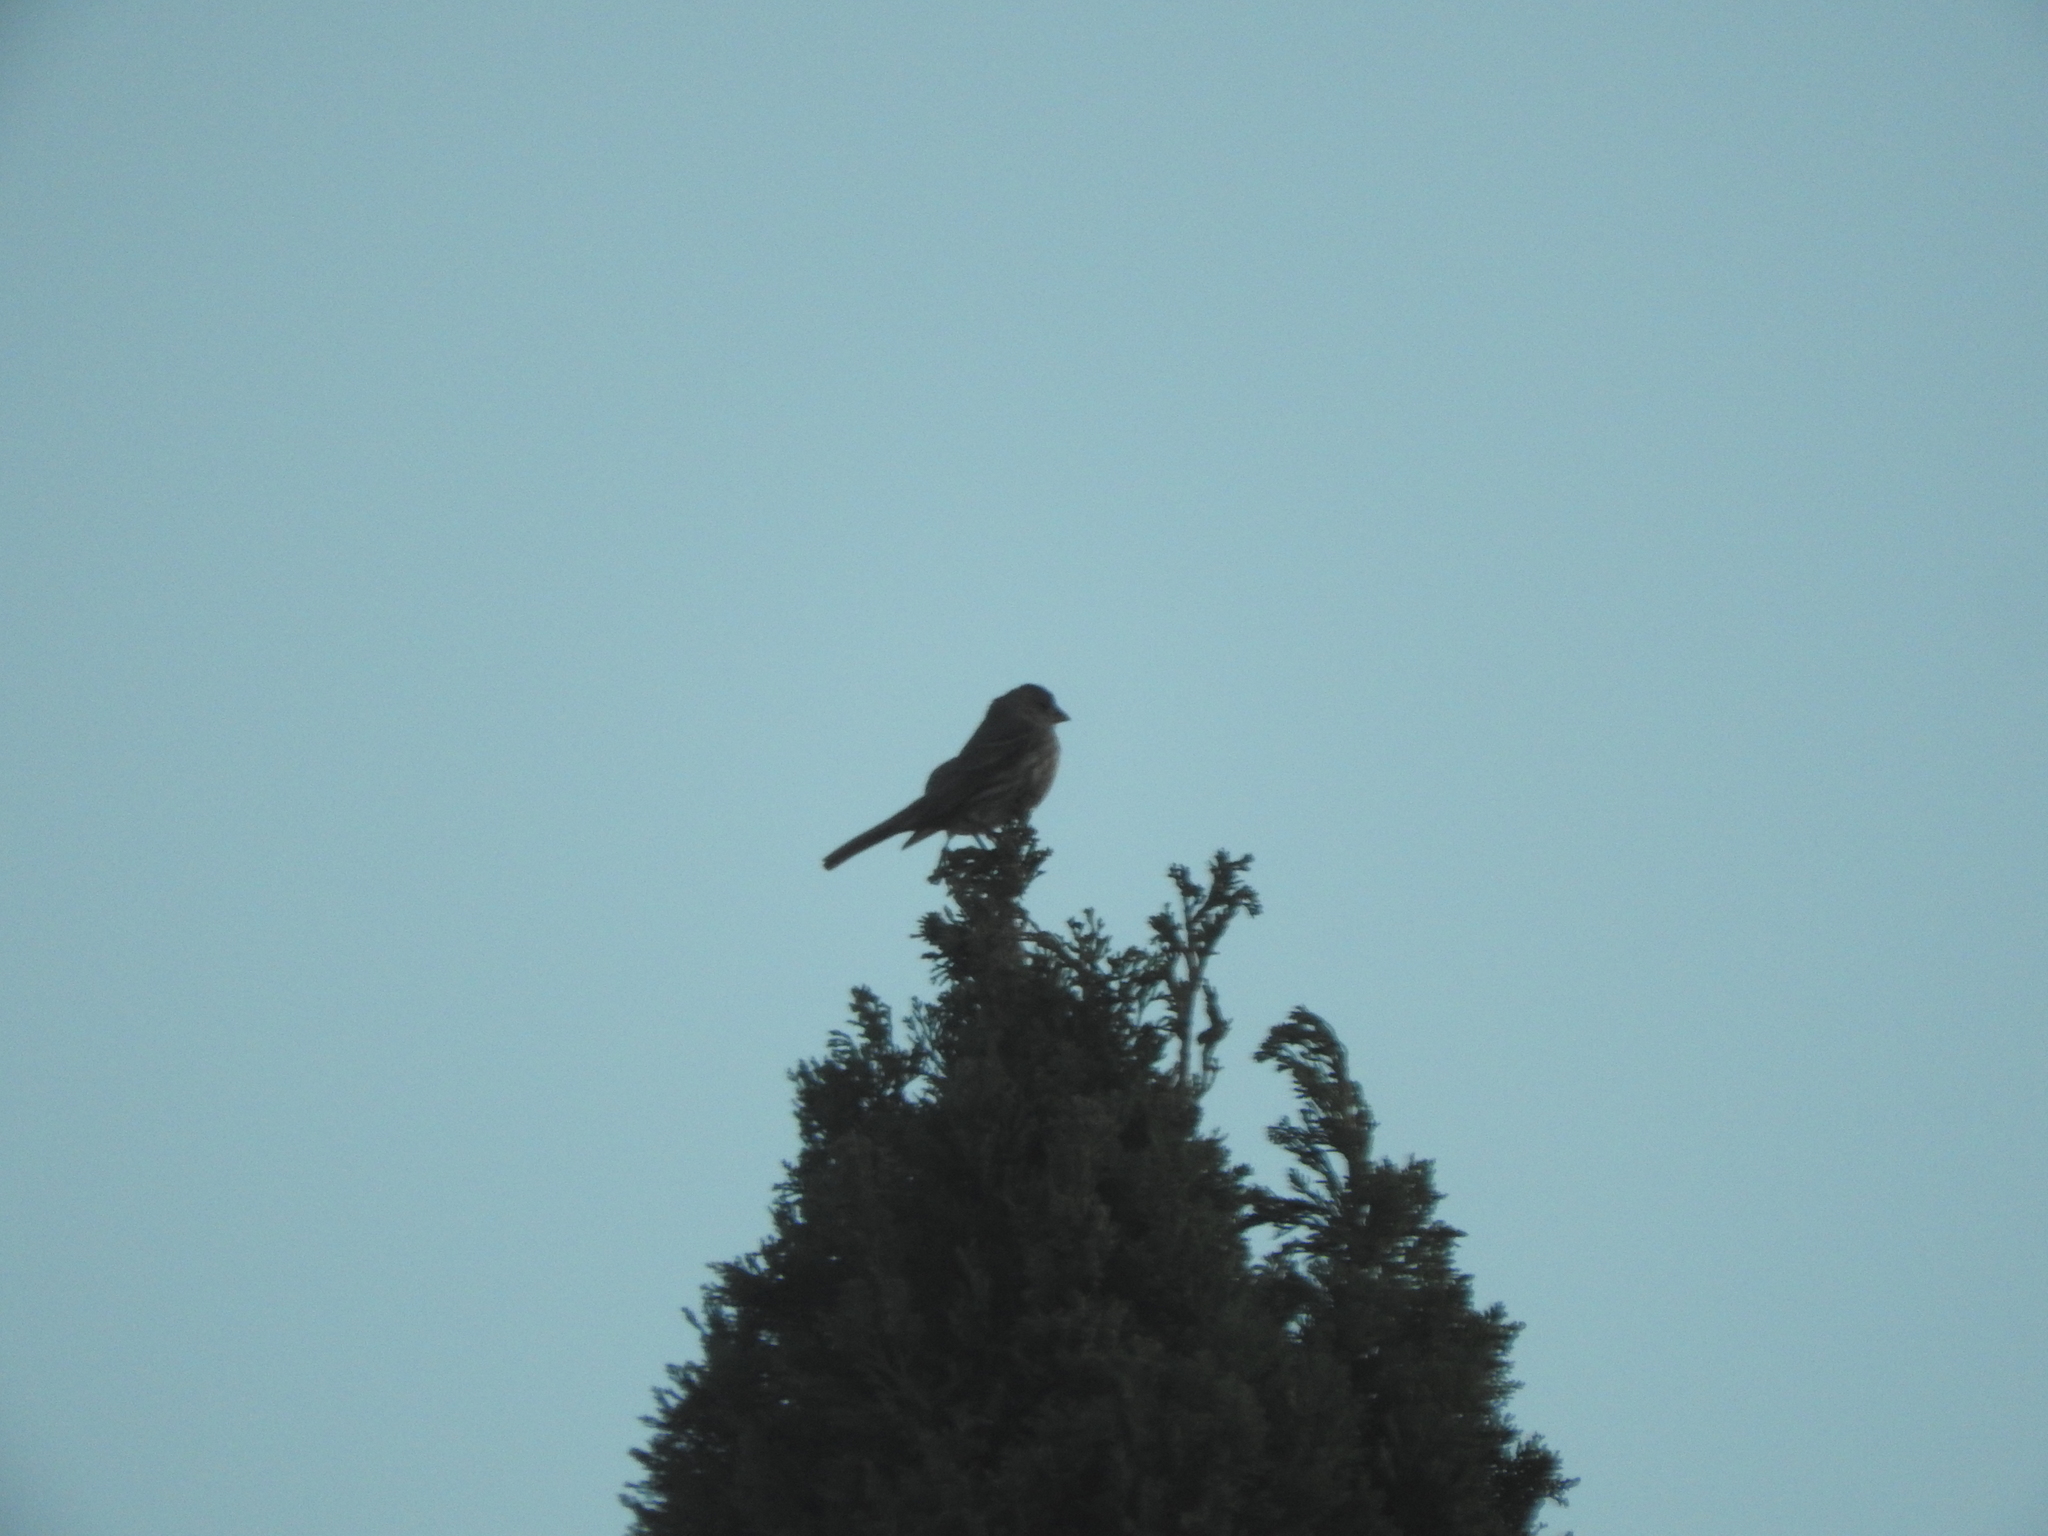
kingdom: Animalia
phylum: Chordata
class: Aves
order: Passeriformes
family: Fringillidae
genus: Haemorhous
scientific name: Haemorhous mexicanus
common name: House finch
